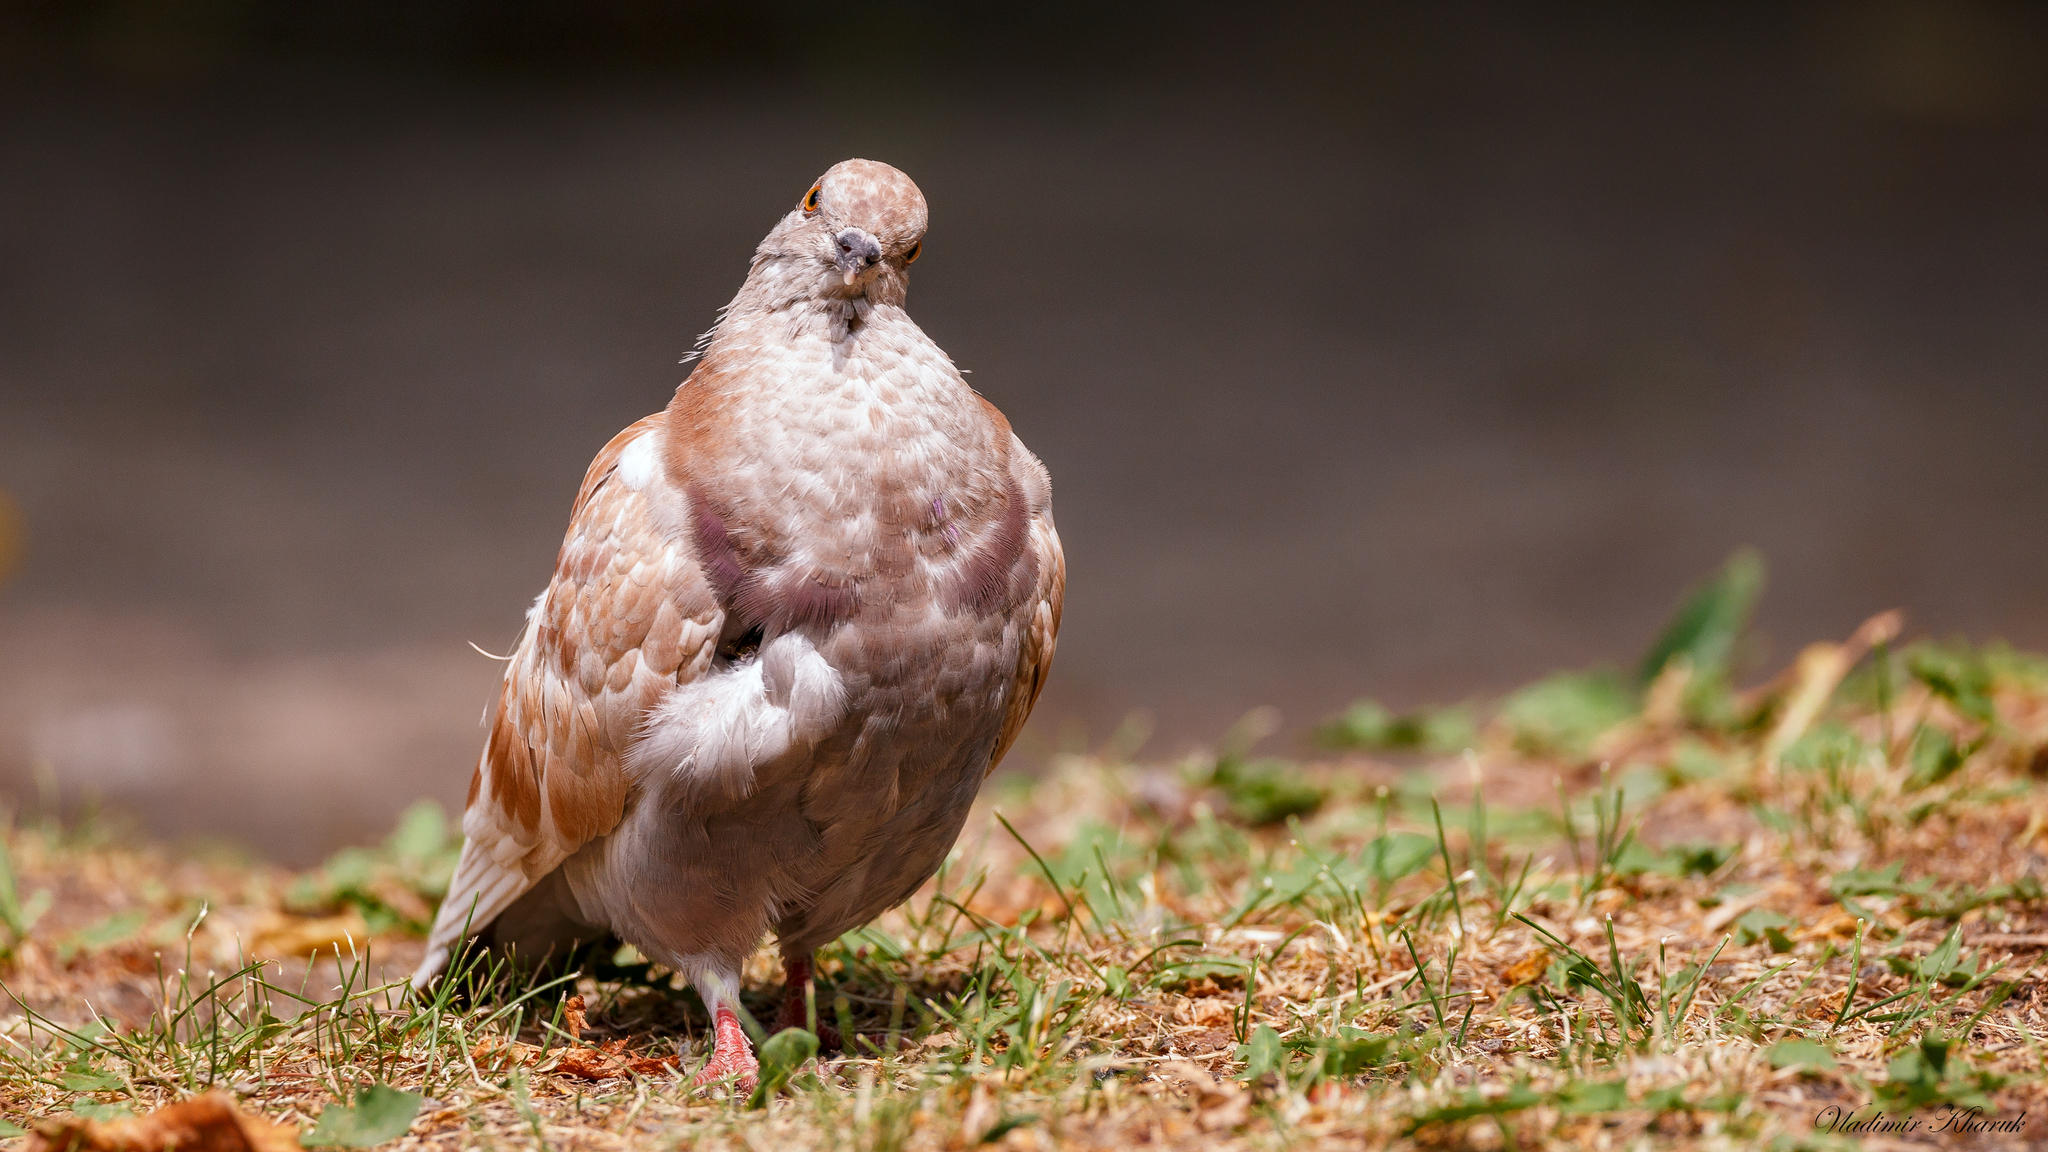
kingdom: Animalia
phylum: Chordata
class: Aves
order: Columbiformes
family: Columbidae
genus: Columba
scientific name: Columba livia
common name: Rock pigeon
